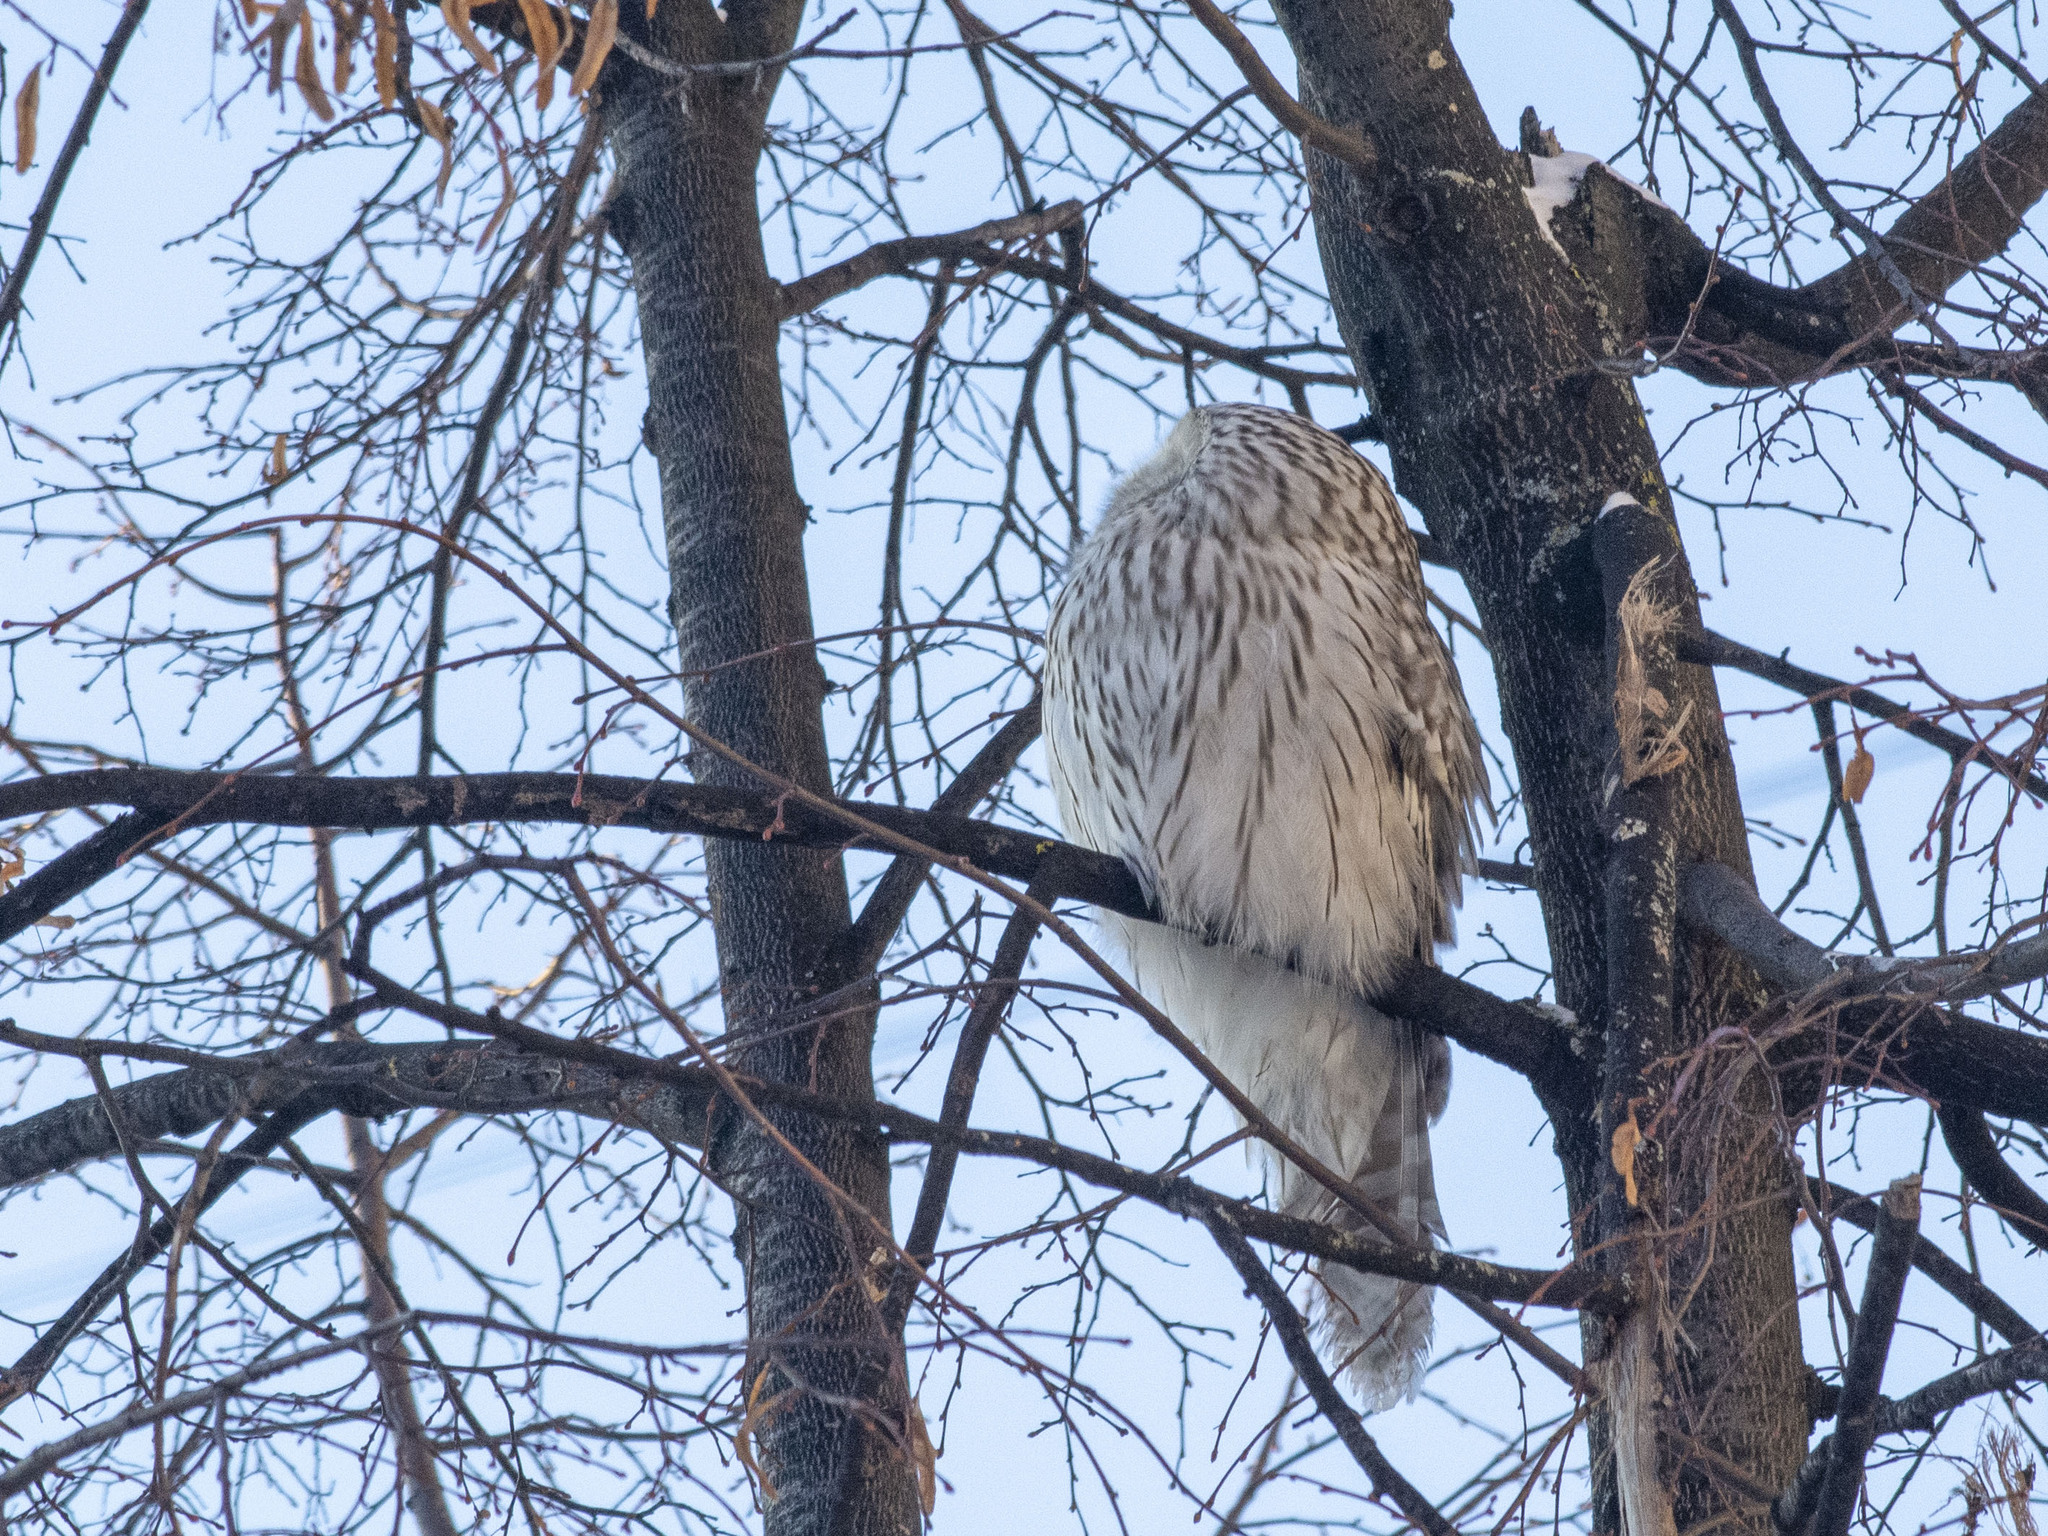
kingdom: Animalia
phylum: Chordata
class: Aves
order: Strigiformes
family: Strigidae
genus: Strix
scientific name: Strix uralensis
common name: Ural owl
